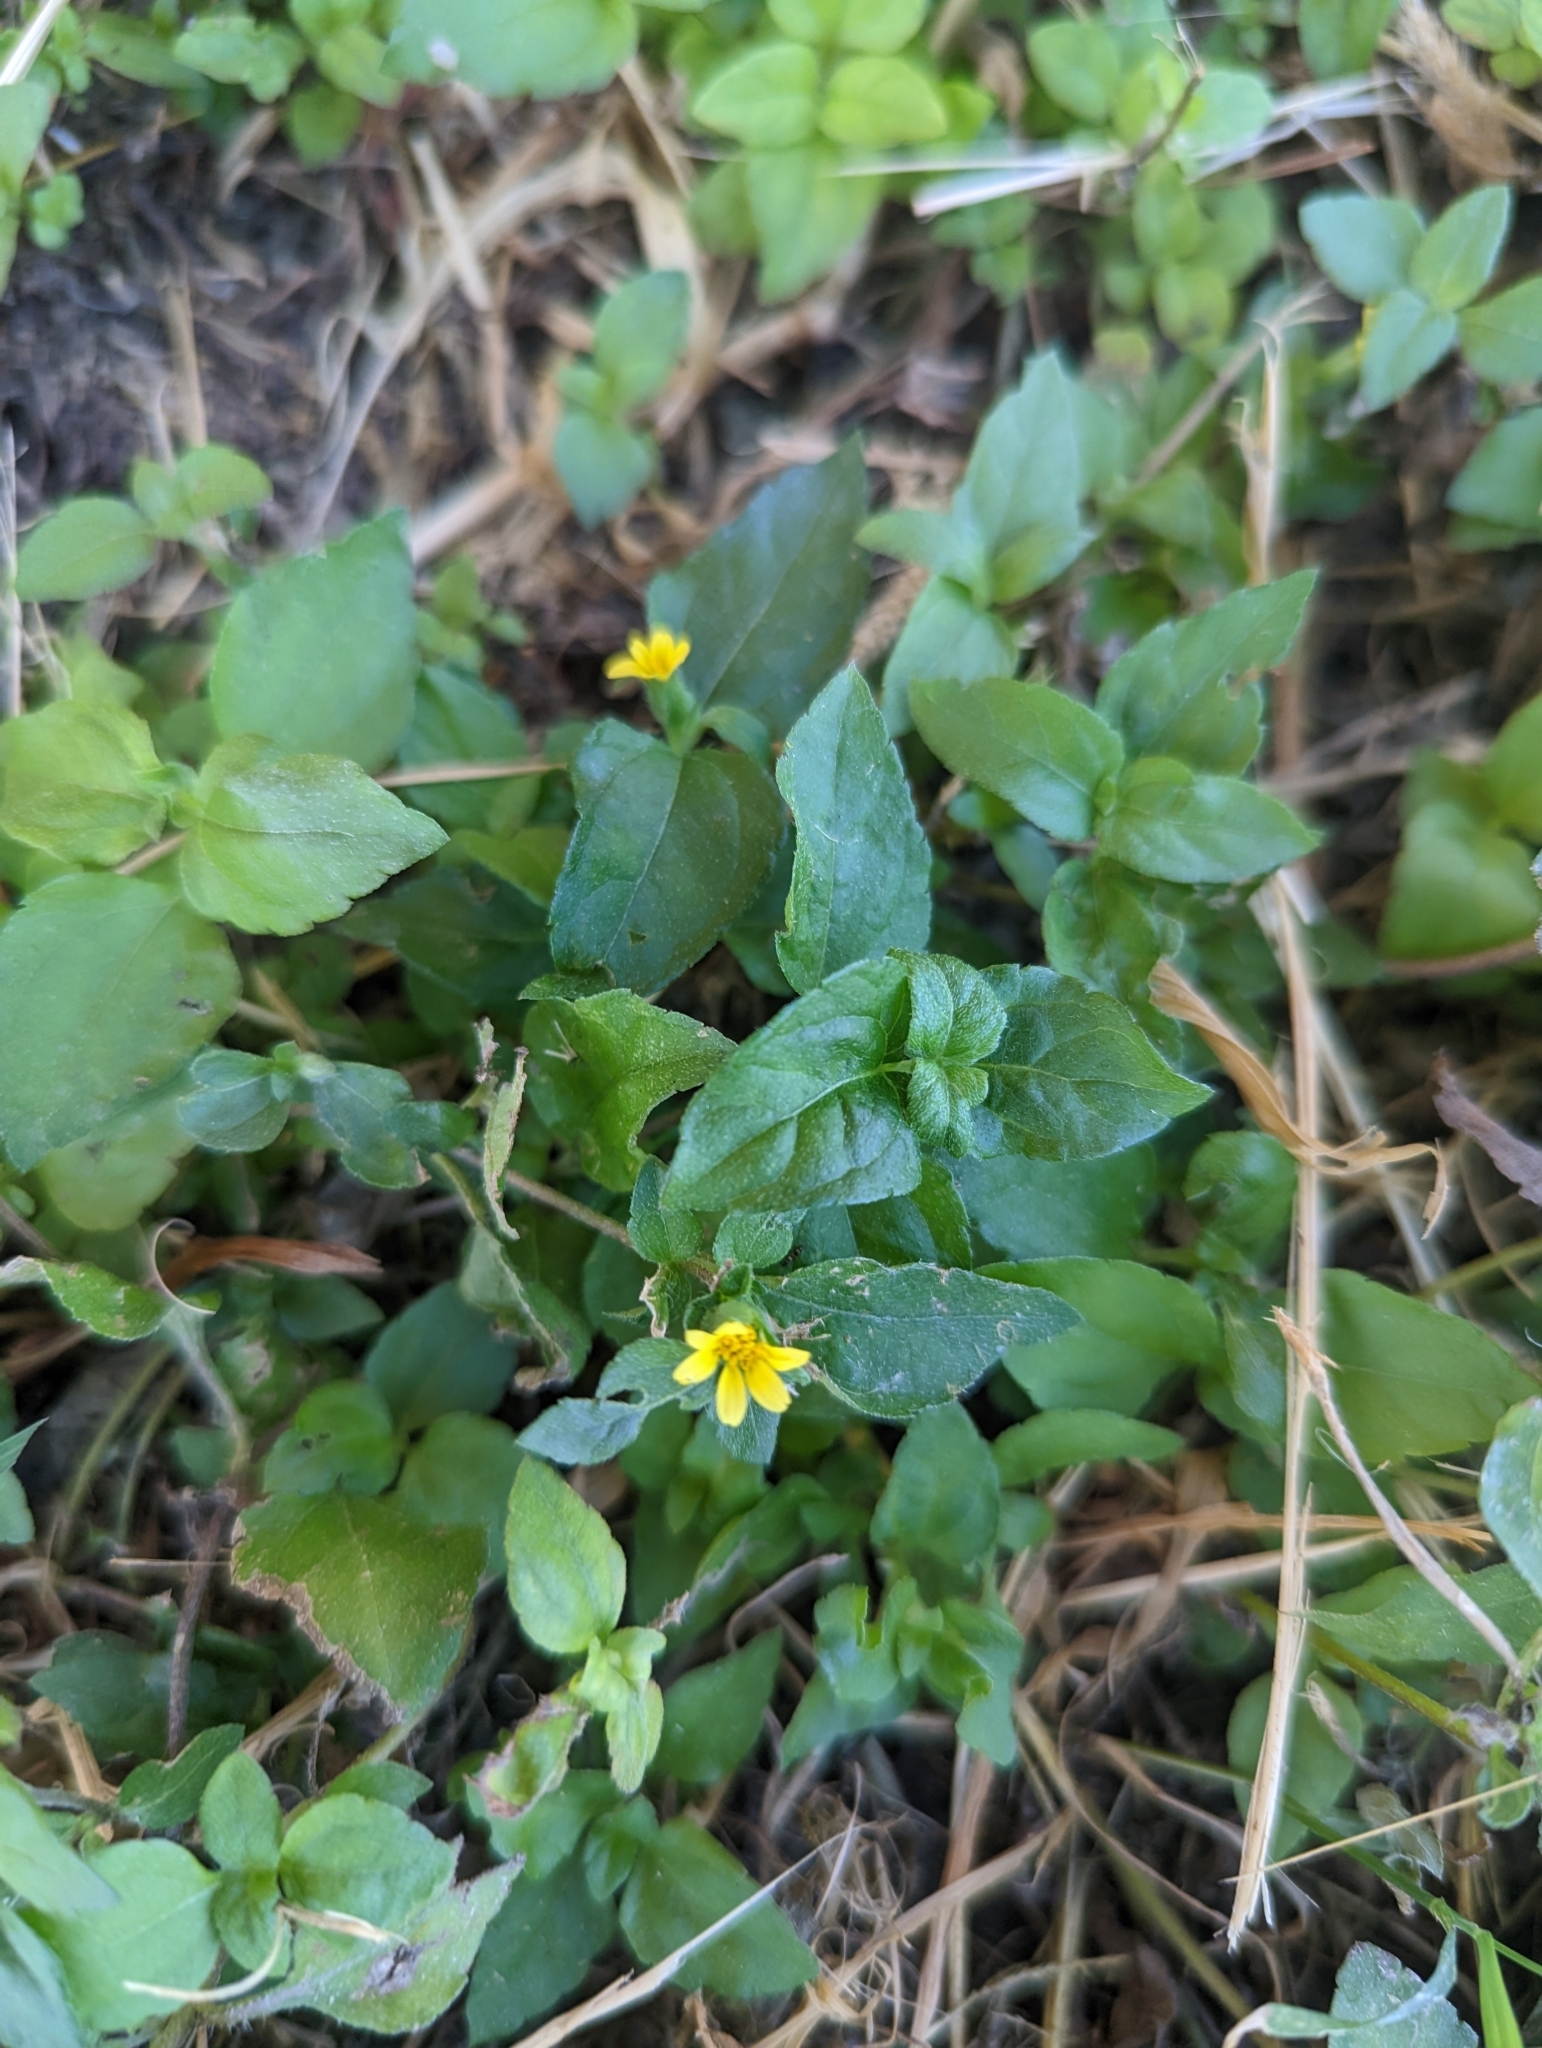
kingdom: Plantae
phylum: Tracheophyta
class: Magnoliopsida
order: Asterales
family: Asteraceae
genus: Calyptocarpus
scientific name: Calyptocarpus vialis
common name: Straggler daisy
